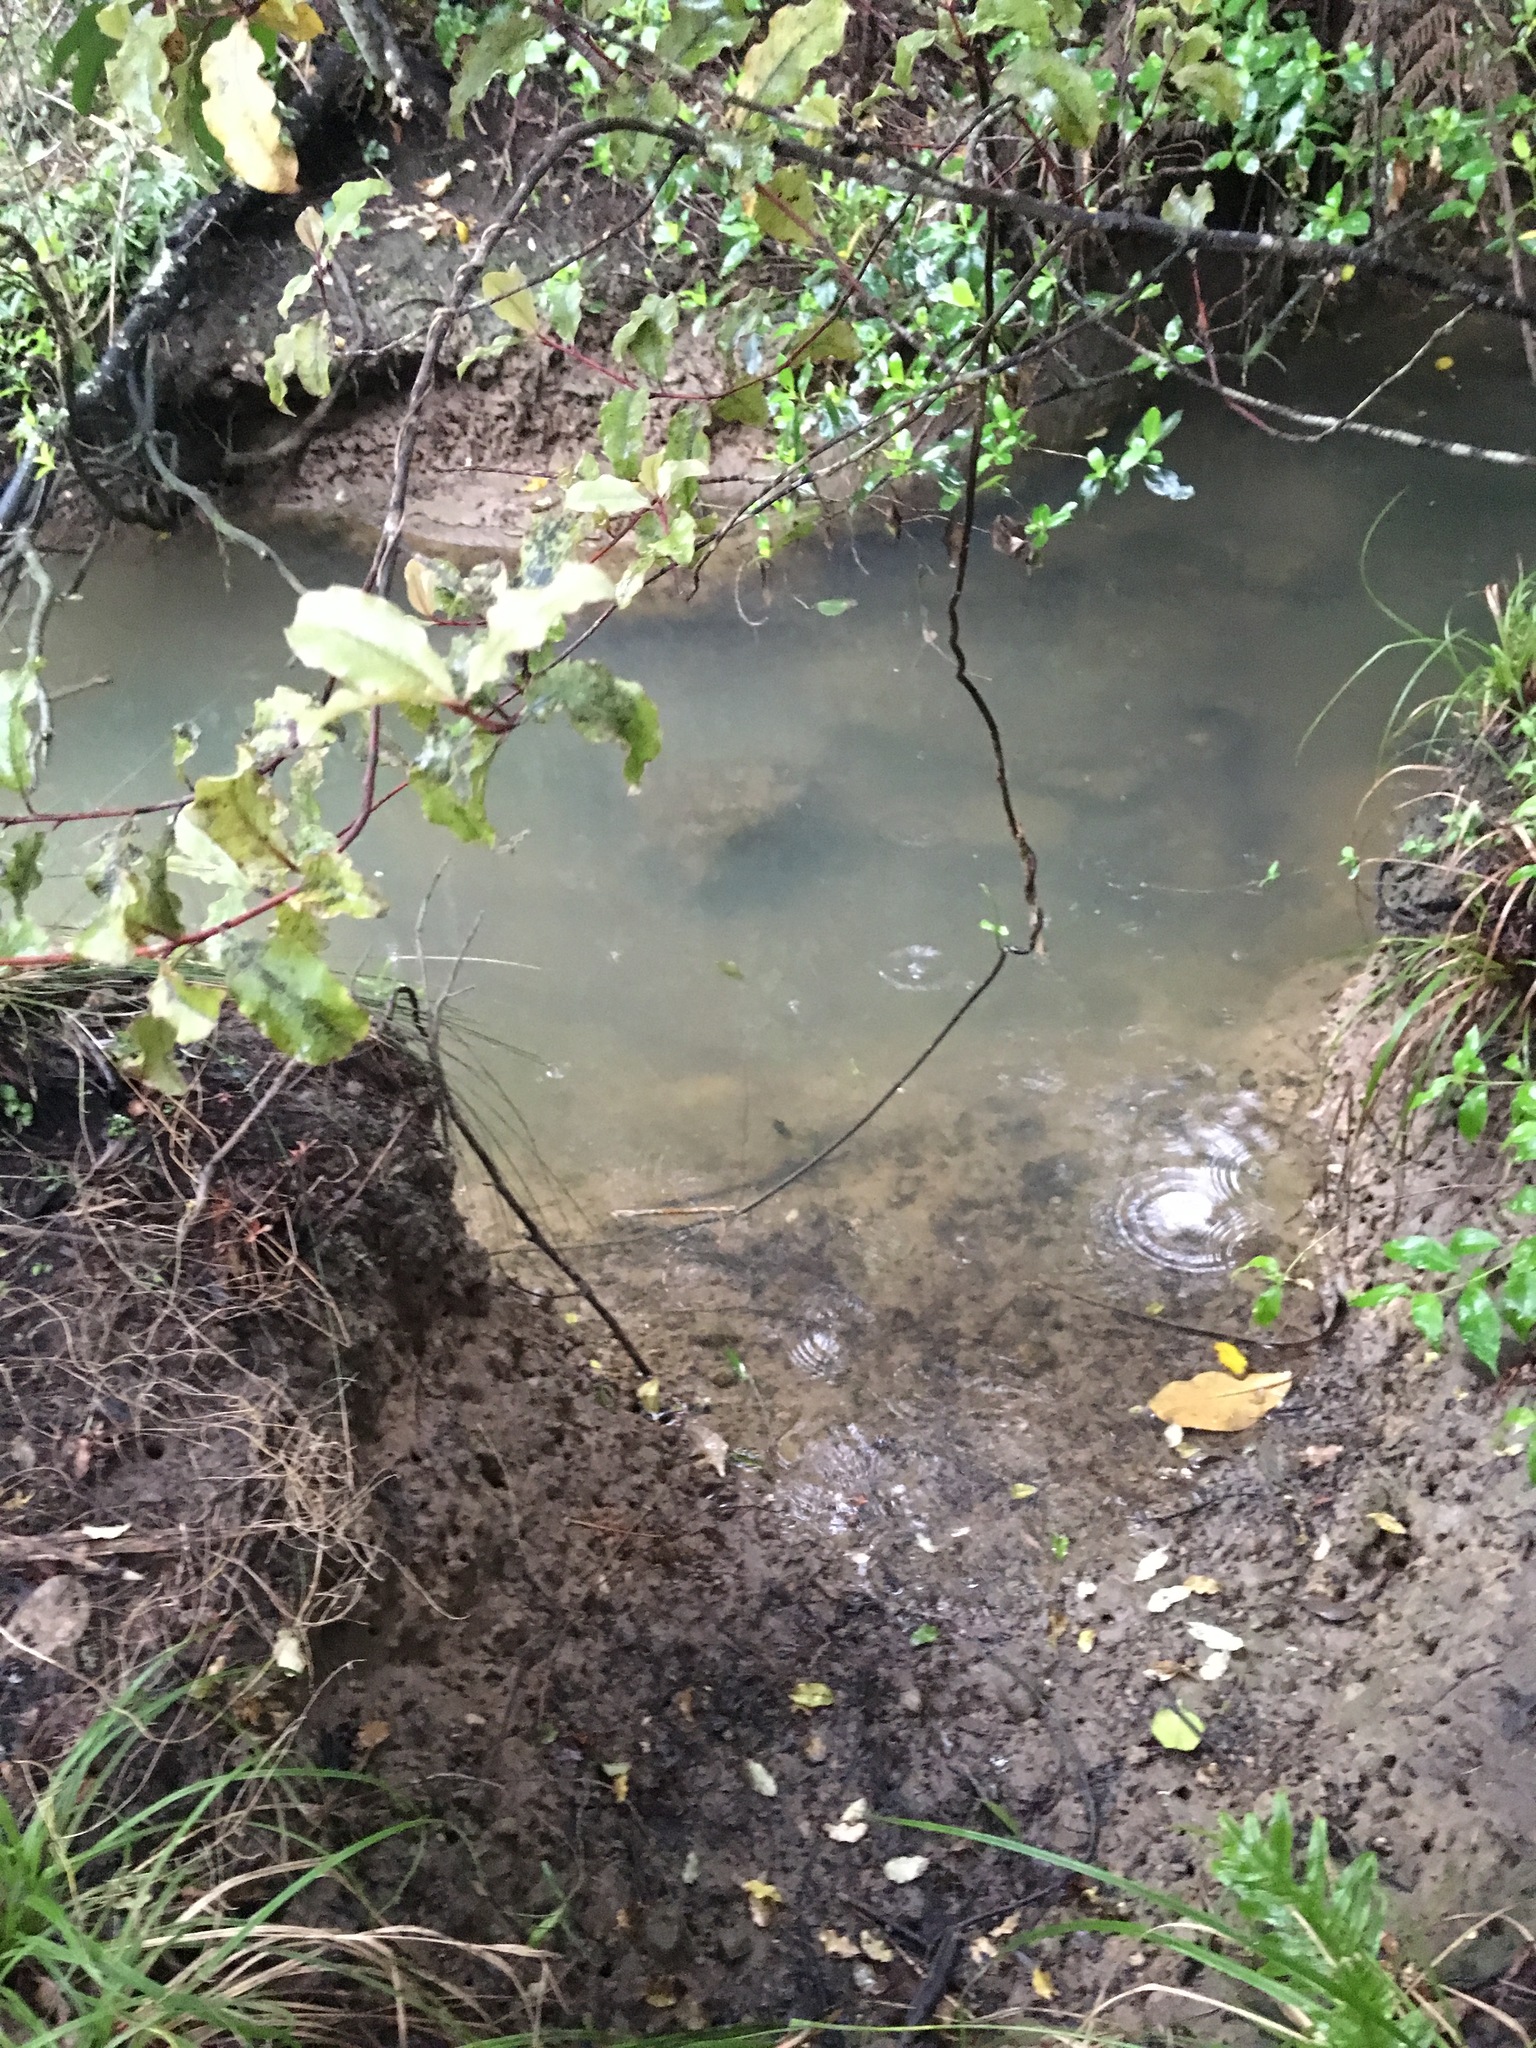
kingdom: Plantae
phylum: Tracheophyta
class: Magnoliopsida
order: Ericales
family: Primulaceae
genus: Myrsine
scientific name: Myrsine australis
